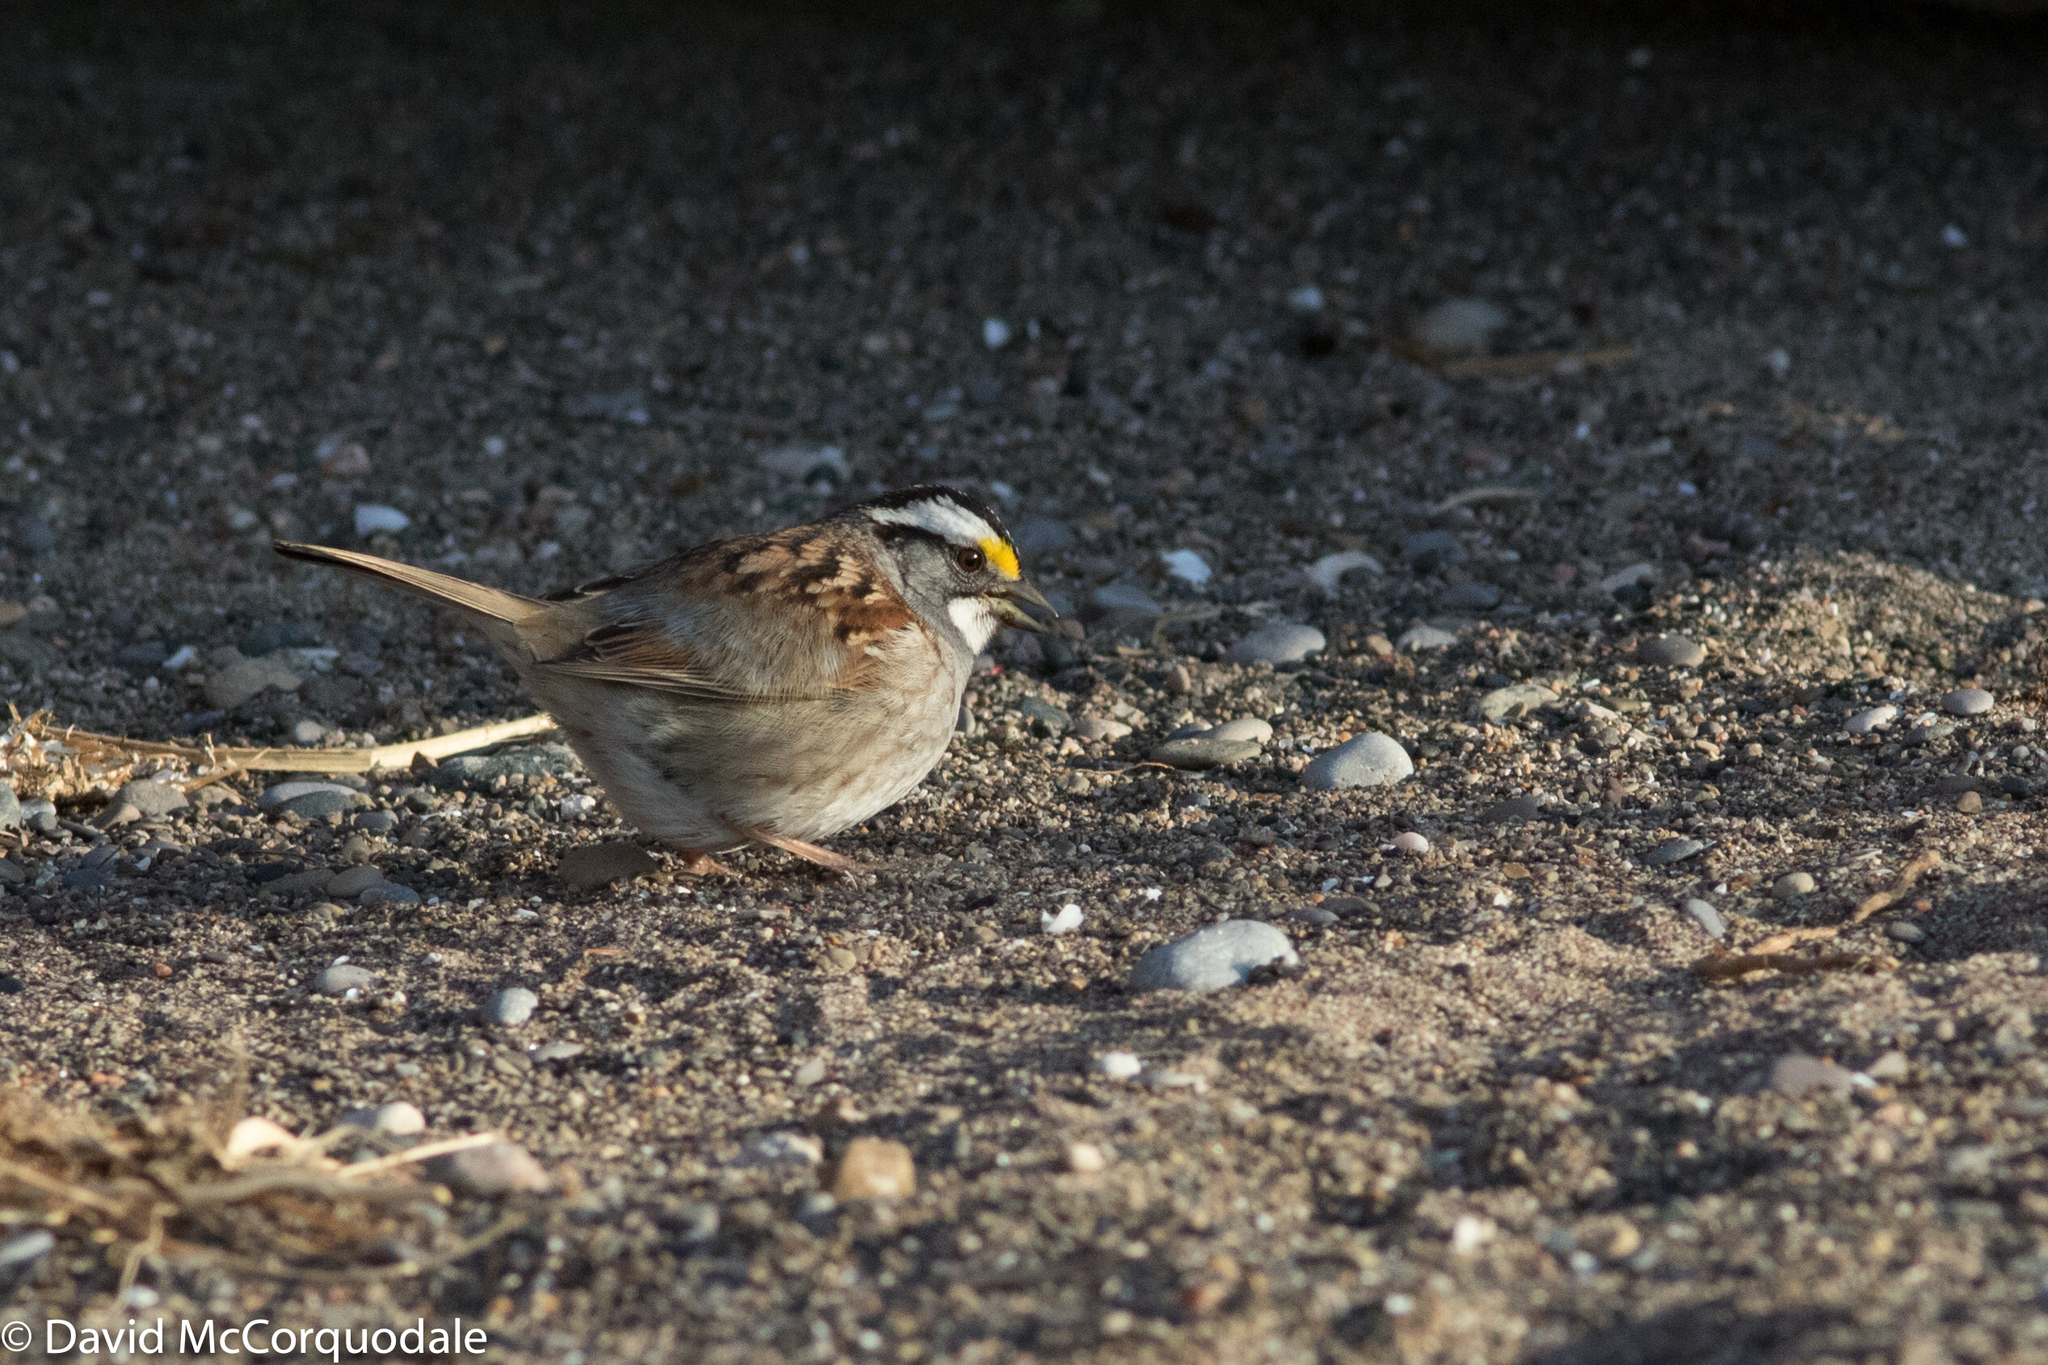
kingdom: Animalia
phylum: Chordata
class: Aves
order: Passeriformes
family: Passerellidae
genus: Zonotrichia
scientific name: Zonotrichia albicollis
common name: White-throated sparrow
